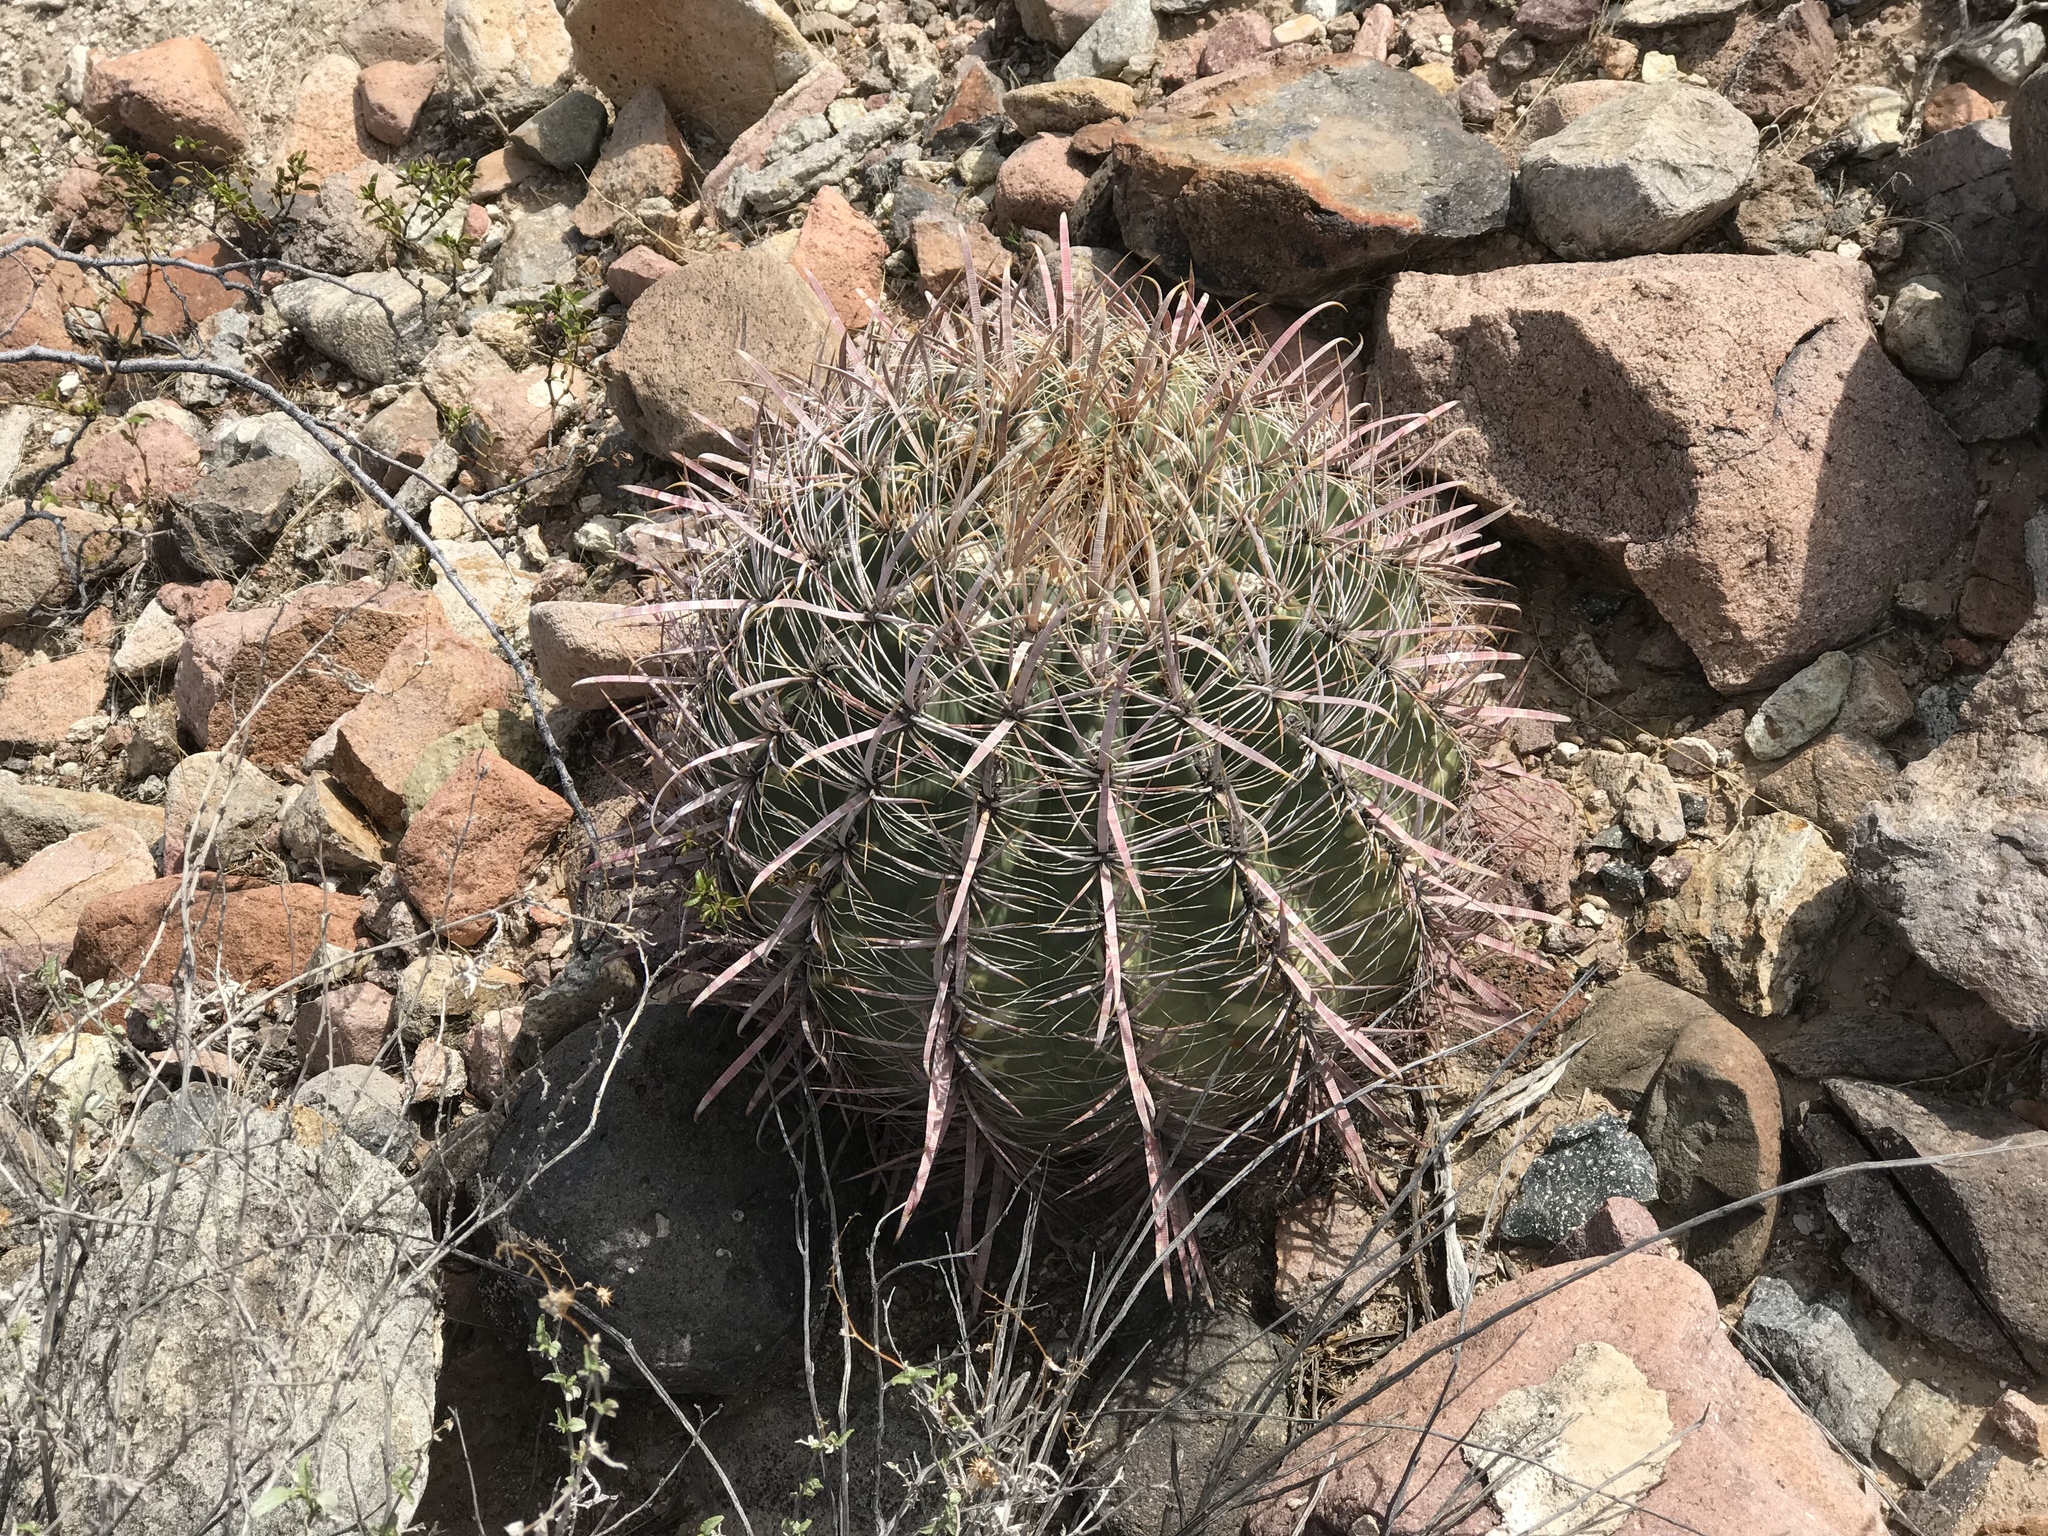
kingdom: Plantae
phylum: Tracheophyta
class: Magnoliopsida
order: Caryophyllales
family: Cactaceae
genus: Ferocactus
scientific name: Ferocactus cylindraceus
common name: California barrel cactus
